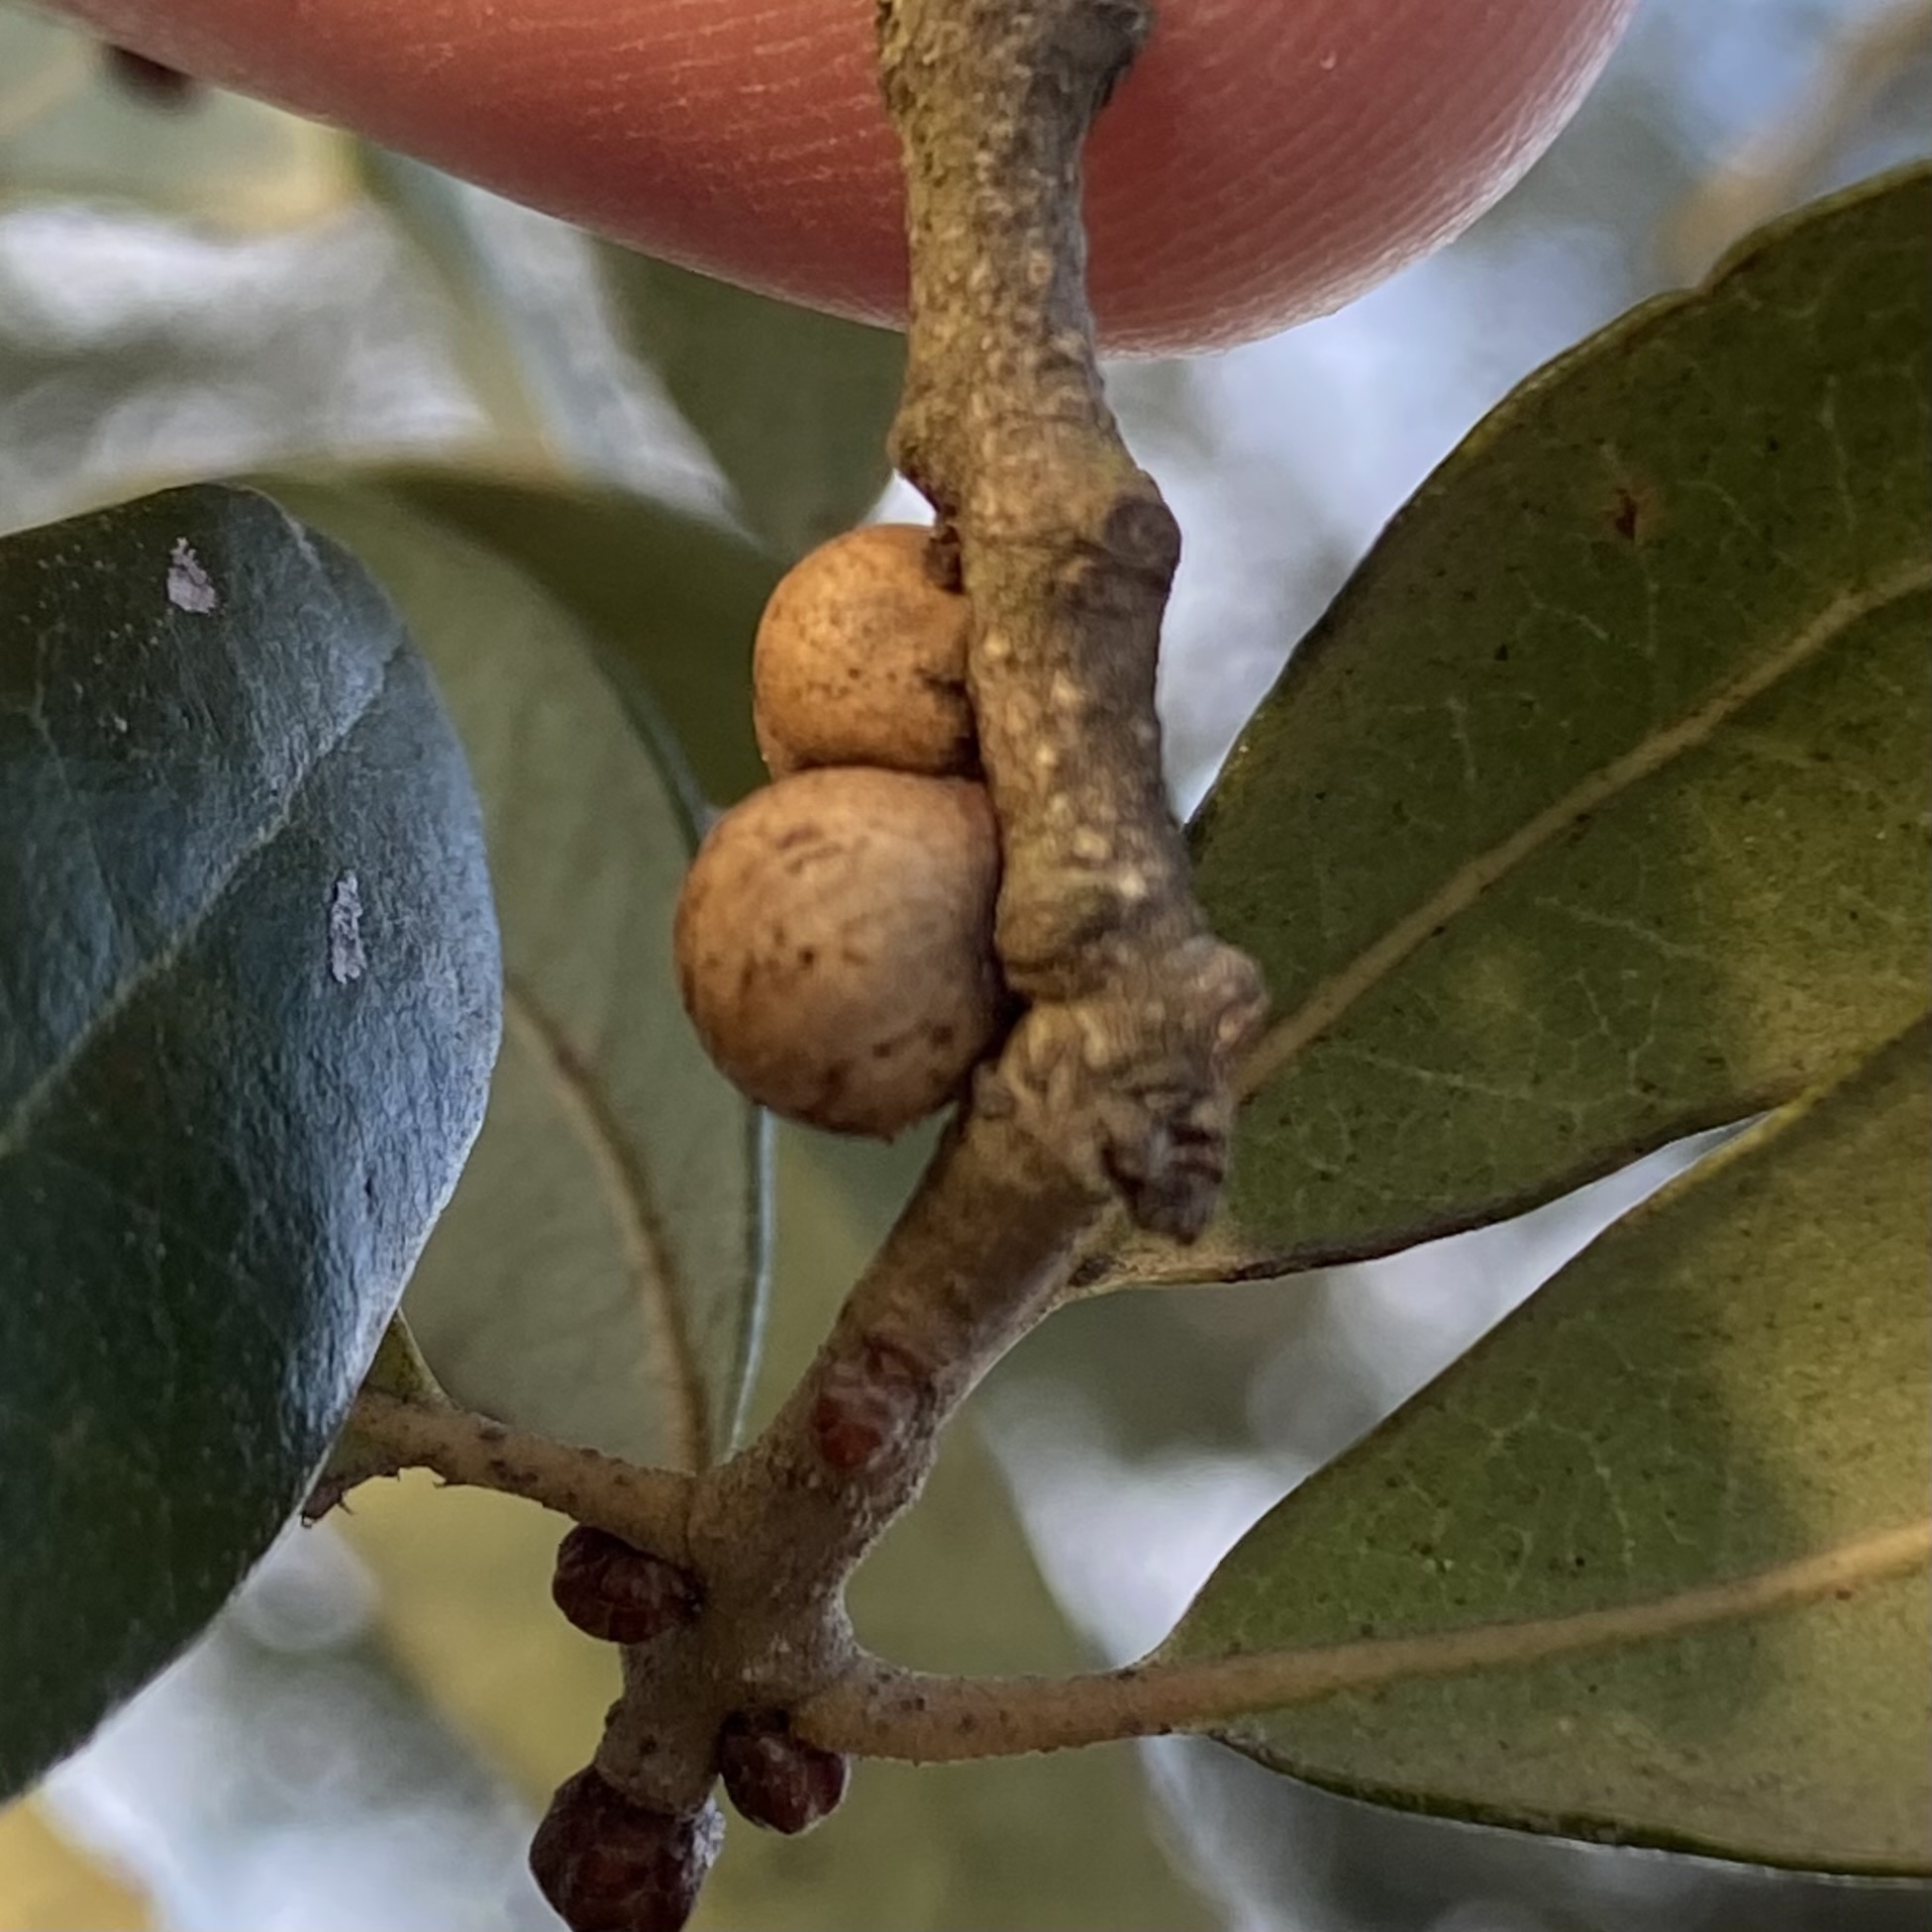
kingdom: Animalia
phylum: Arthropoda
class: Insecta
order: Hemiptera
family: Kermesidae
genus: Allokermes
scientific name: Allokermes
